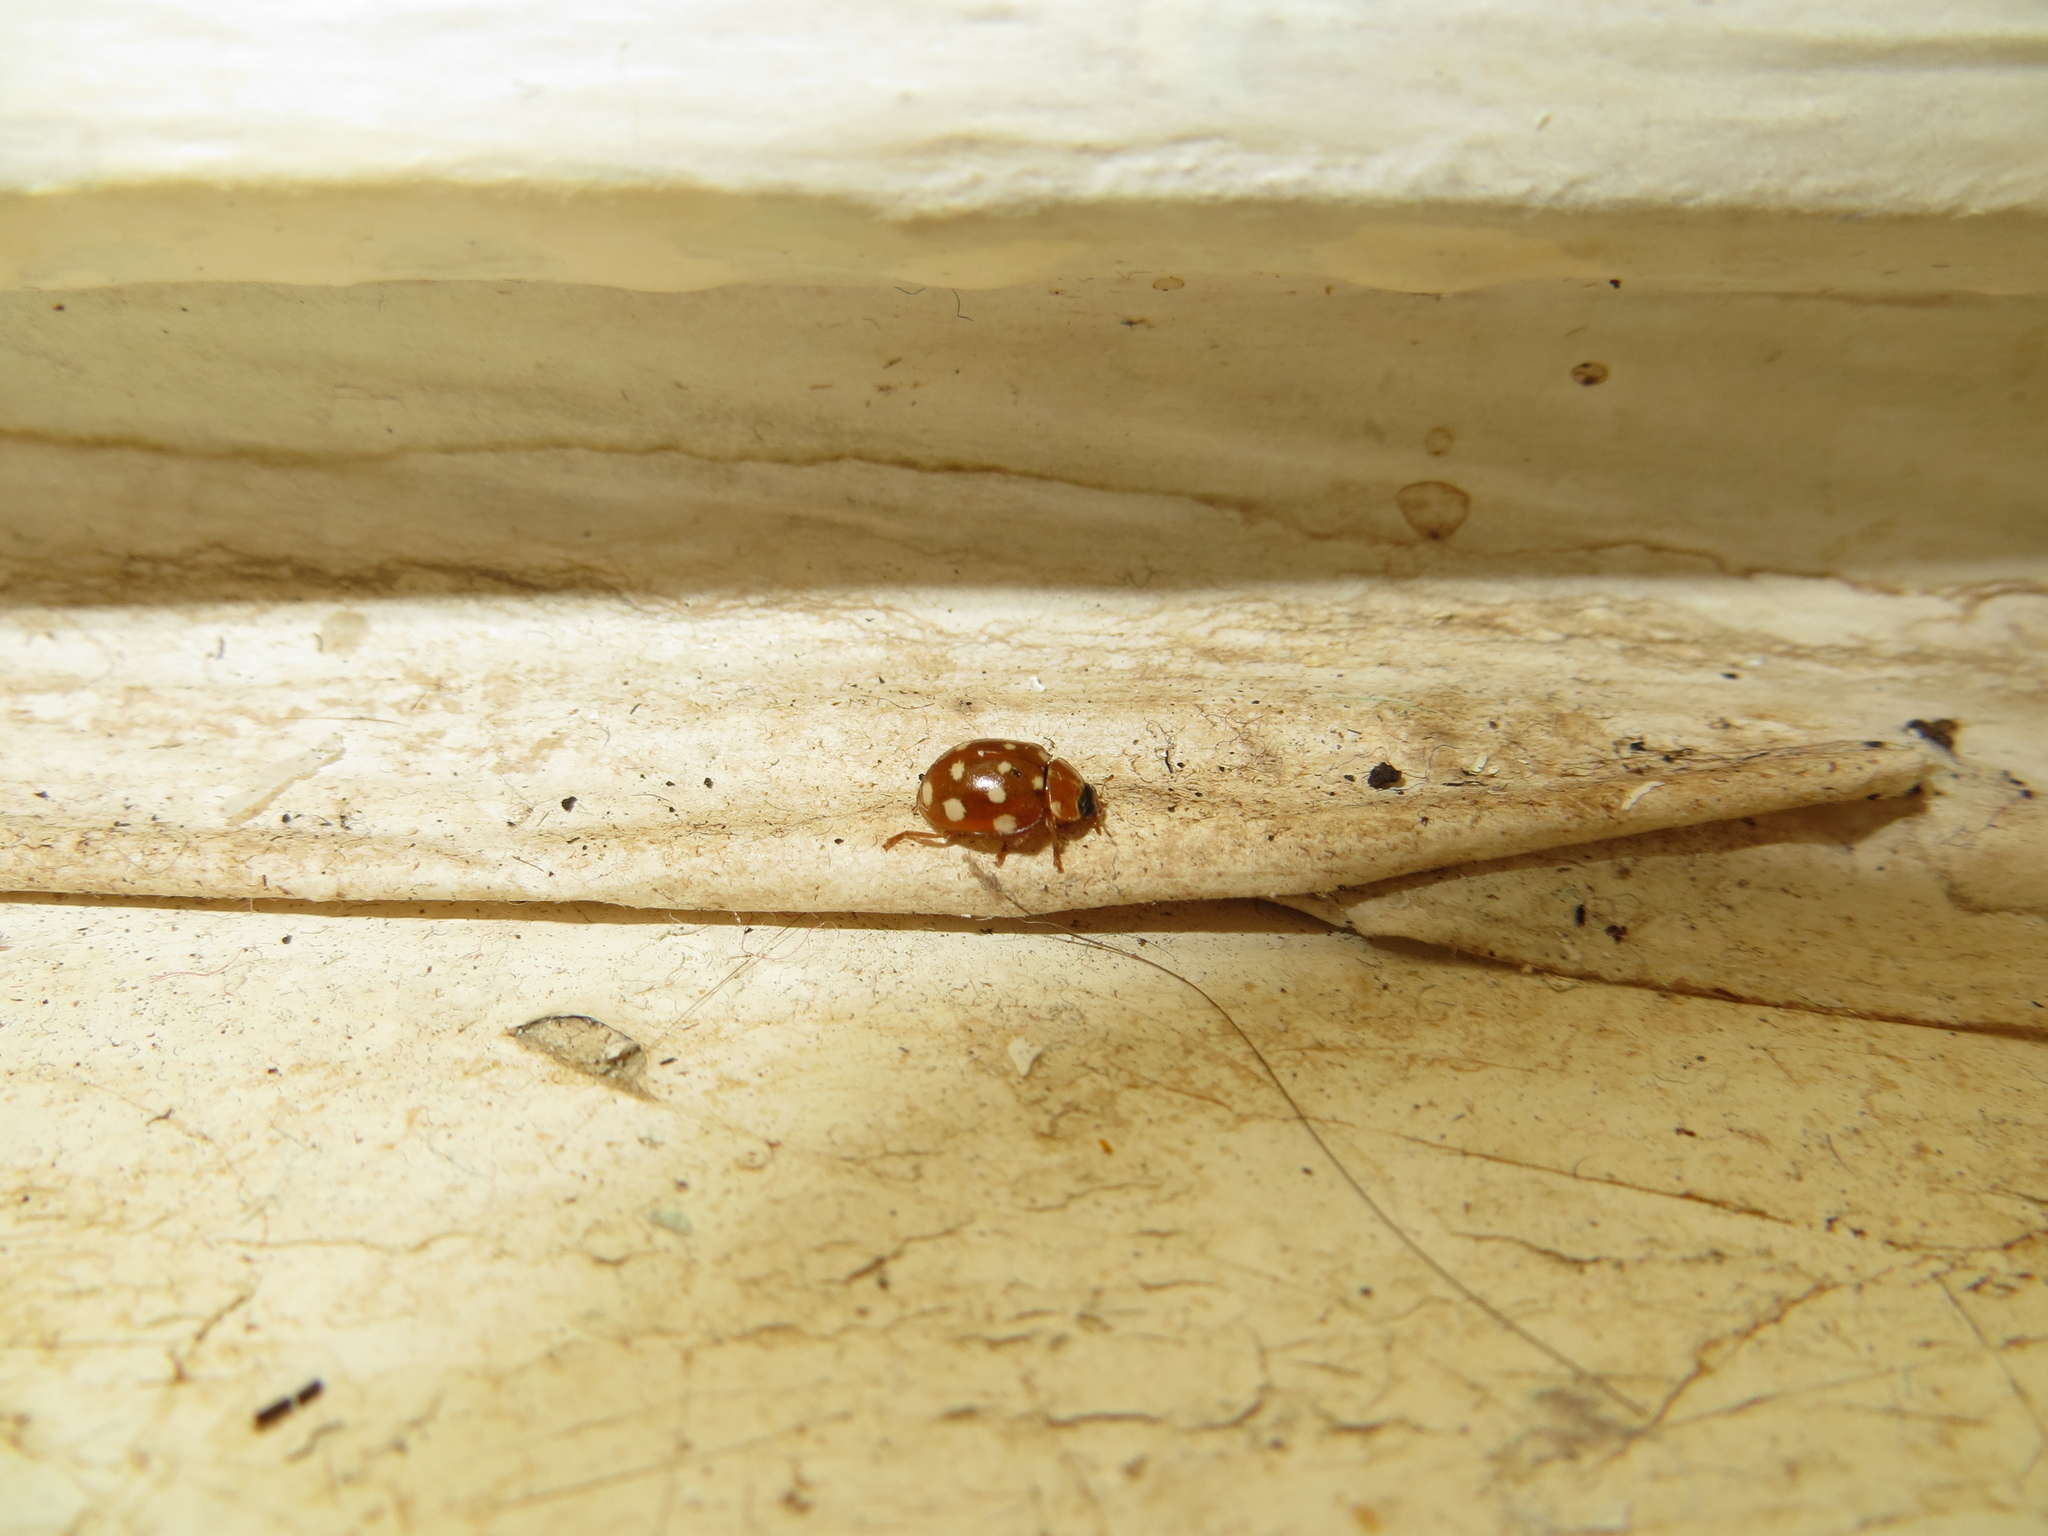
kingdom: Animalia
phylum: Arthropoda
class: Insecta
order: Coleoptera
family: Coccinellidae
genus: Calvia
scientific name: Calvia quatuordecimguttata
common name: Cream-spot ladybird
